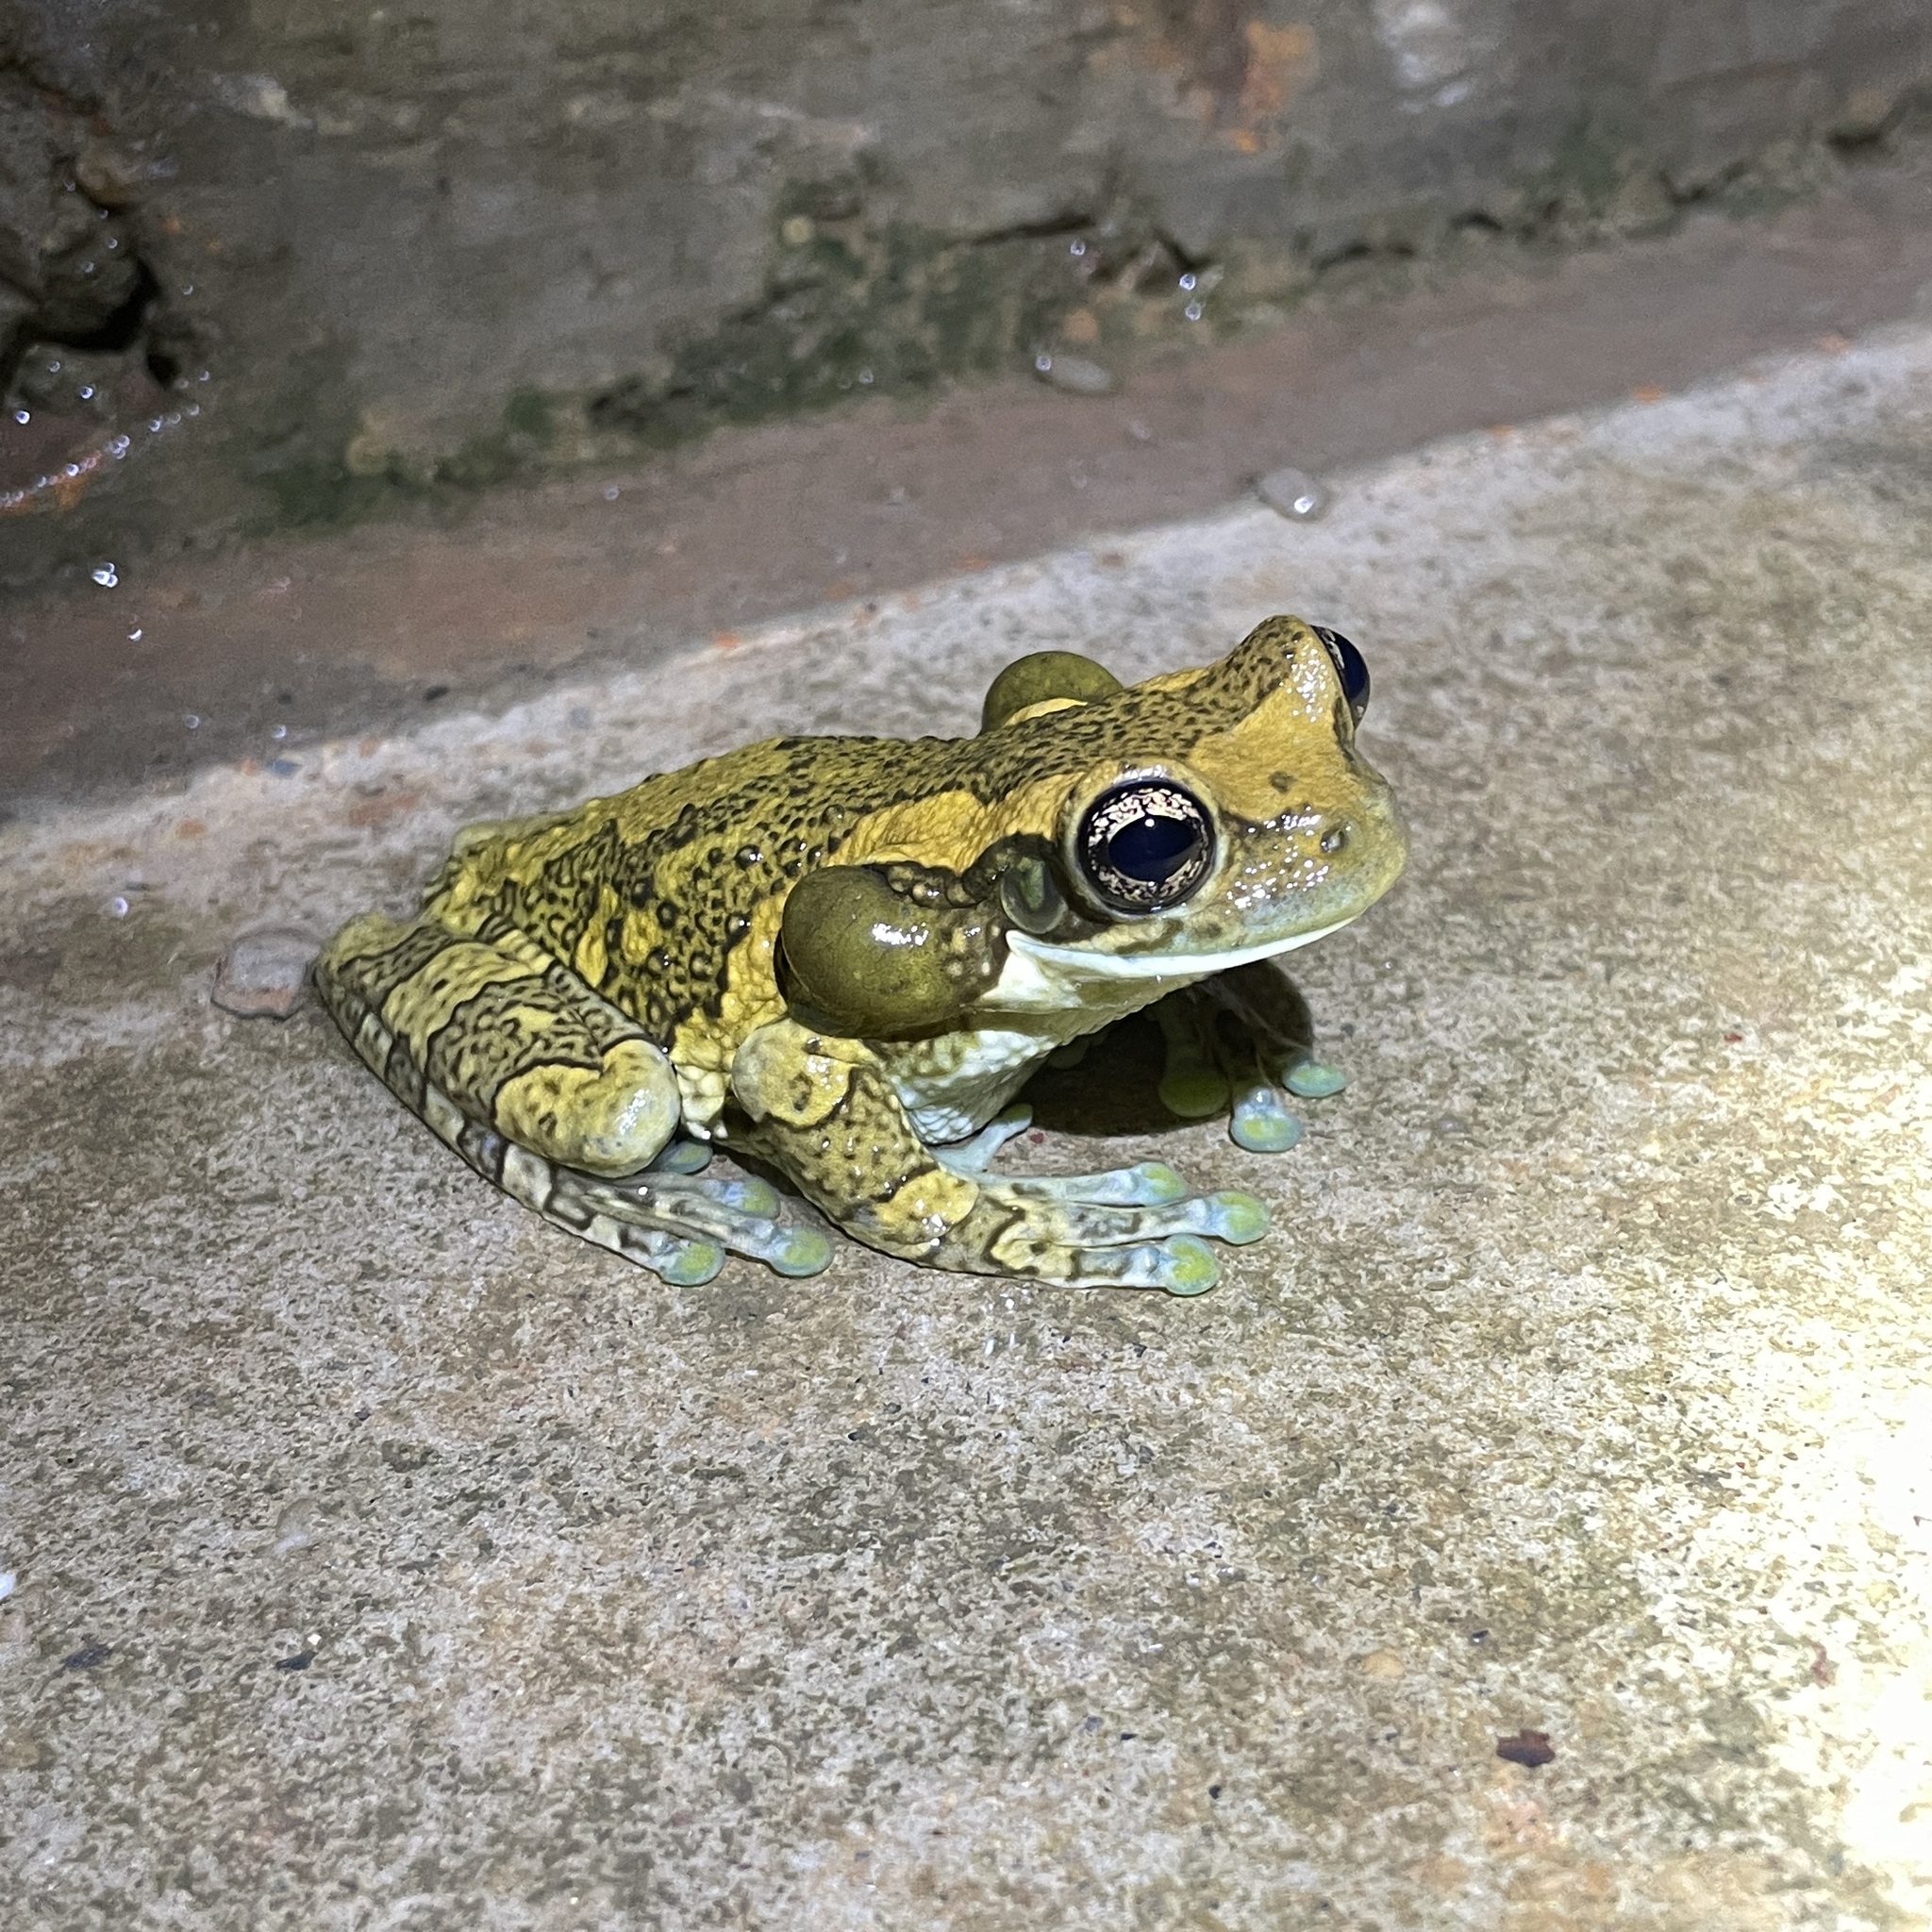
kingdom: Animalia
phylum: Chordata
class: Amphibia
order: Anura
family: Hylidae
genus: Trachycephalus
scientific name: Trachycephalus typhonius
